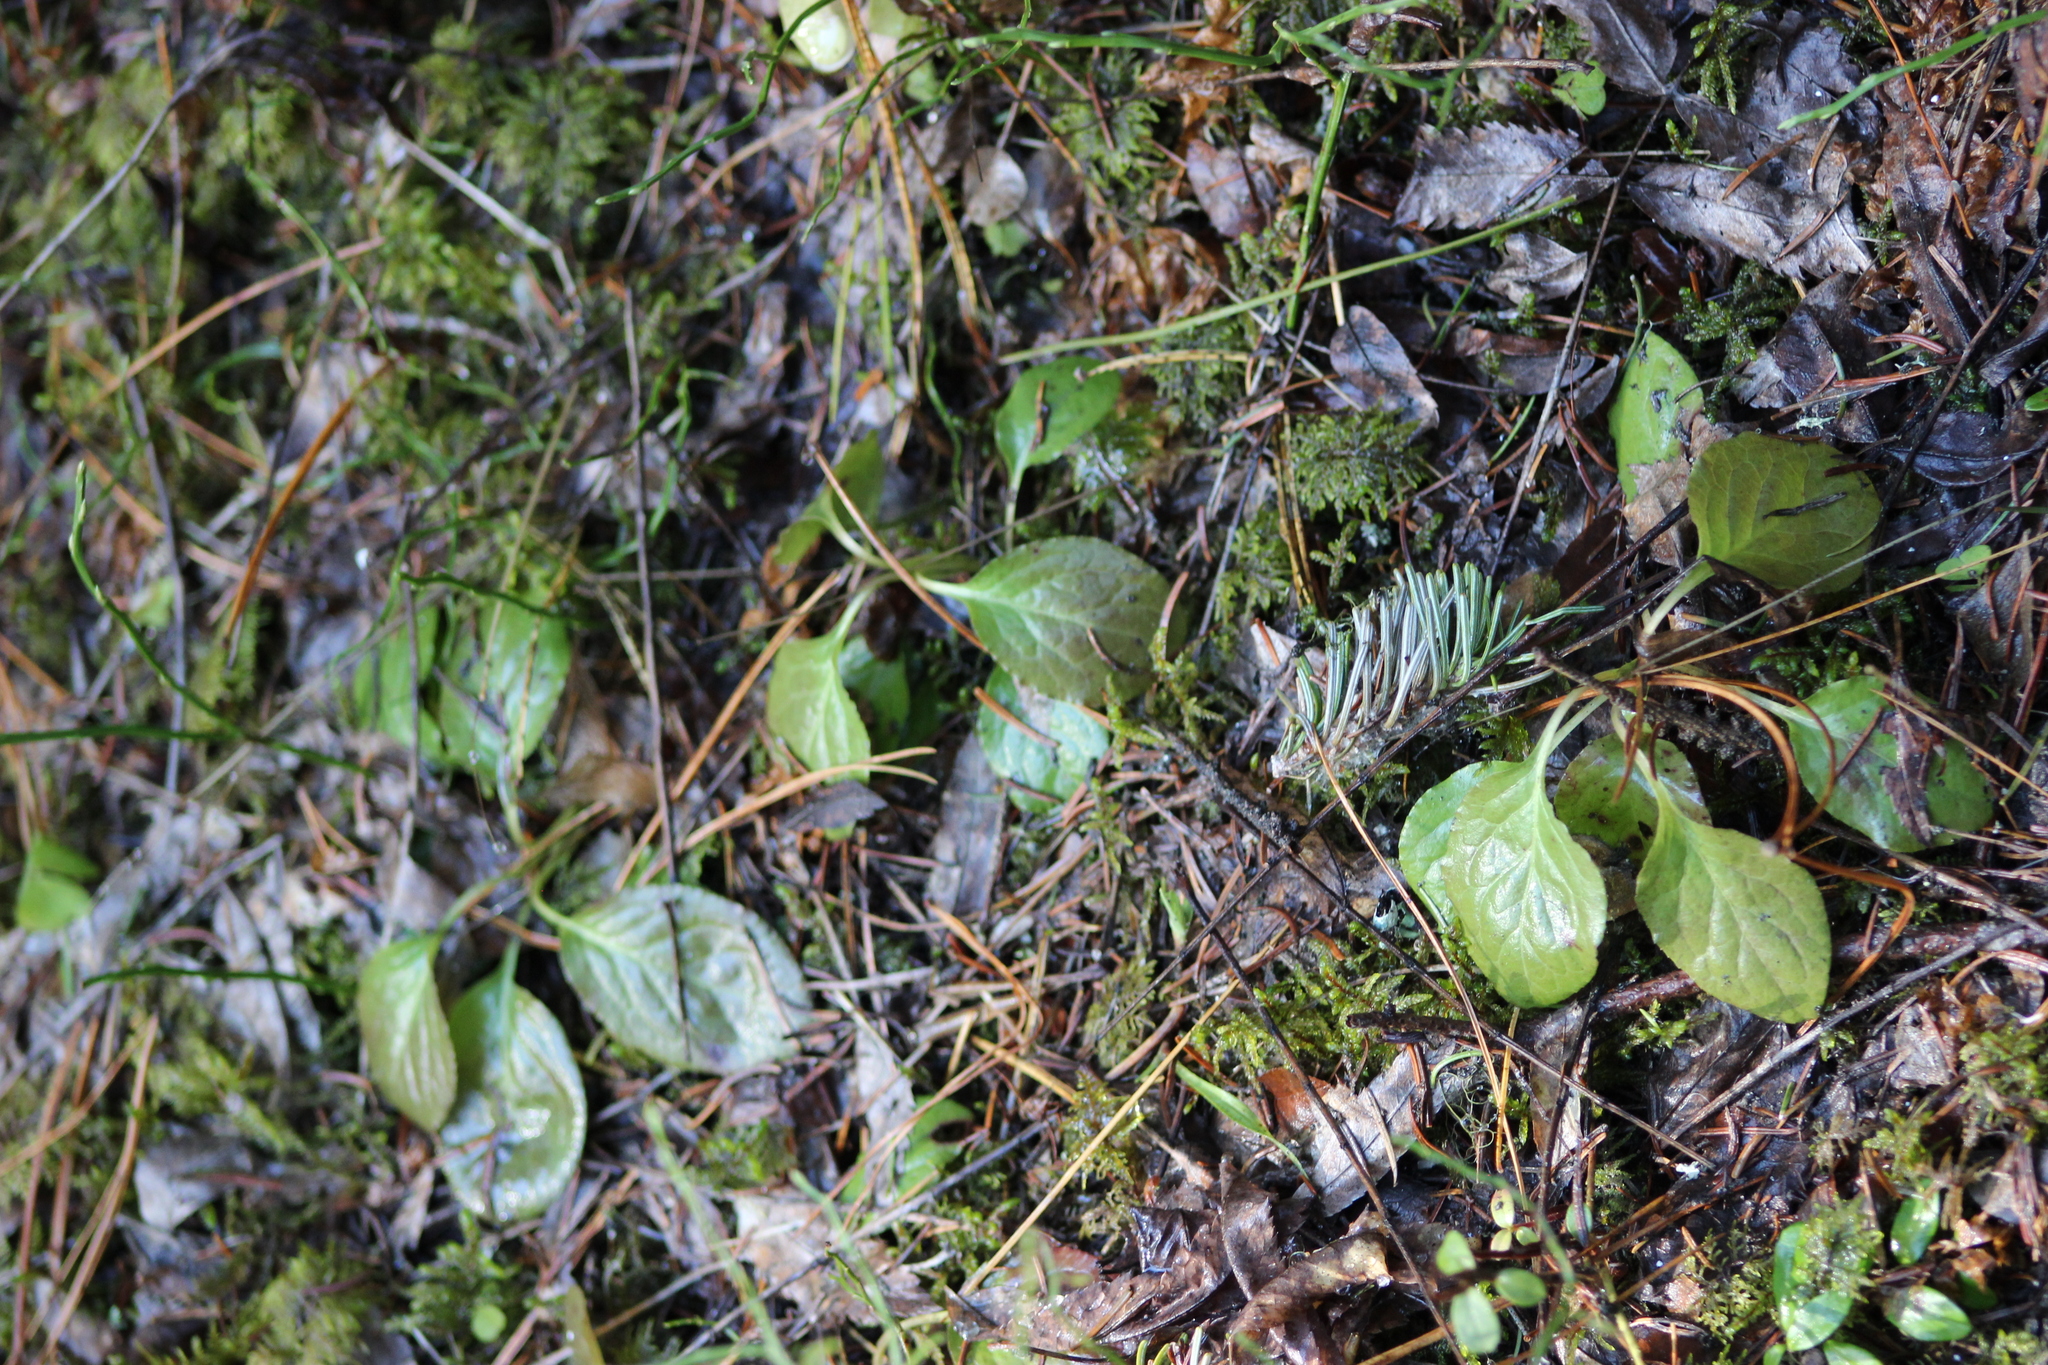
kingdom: Plantae
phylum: Tracheophyta
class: Magnoliopsida
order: Ericales
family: Ericaceae
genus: Orthilia
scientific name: Orthilia secunda
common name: One-sided orthilia
